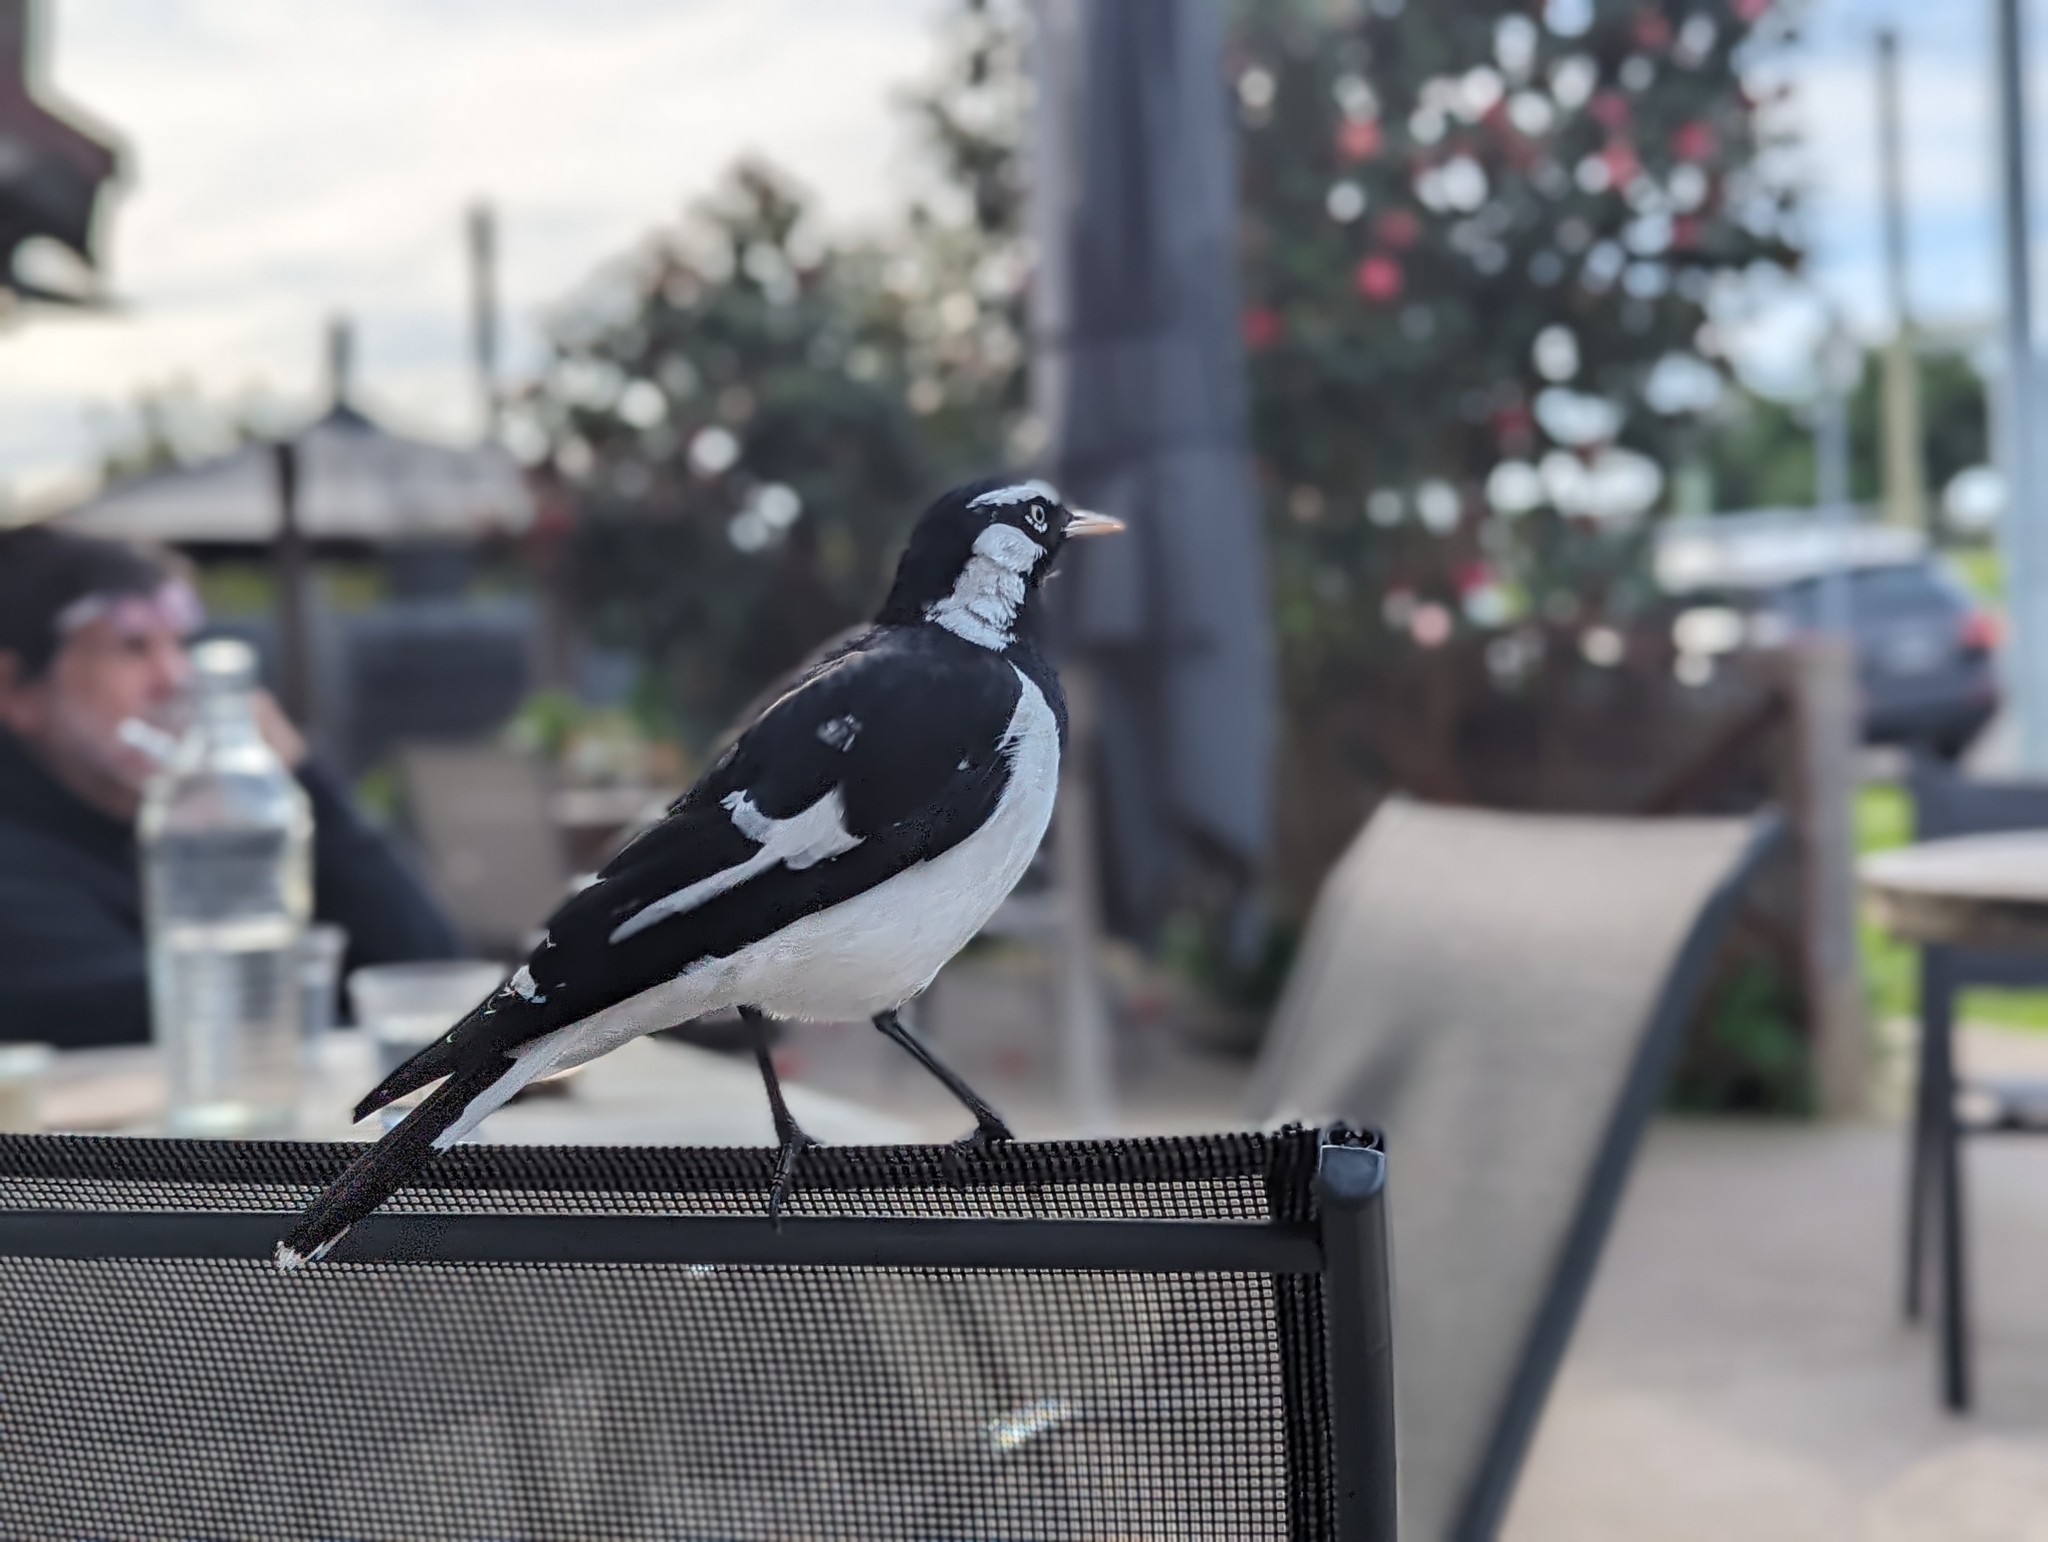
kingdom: Animalia
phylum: Chordata
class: Aves
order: Passeriformes
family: Monarchidae
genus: Grallina
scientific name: Grallina cyanoleuca
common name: Magpie-lark
